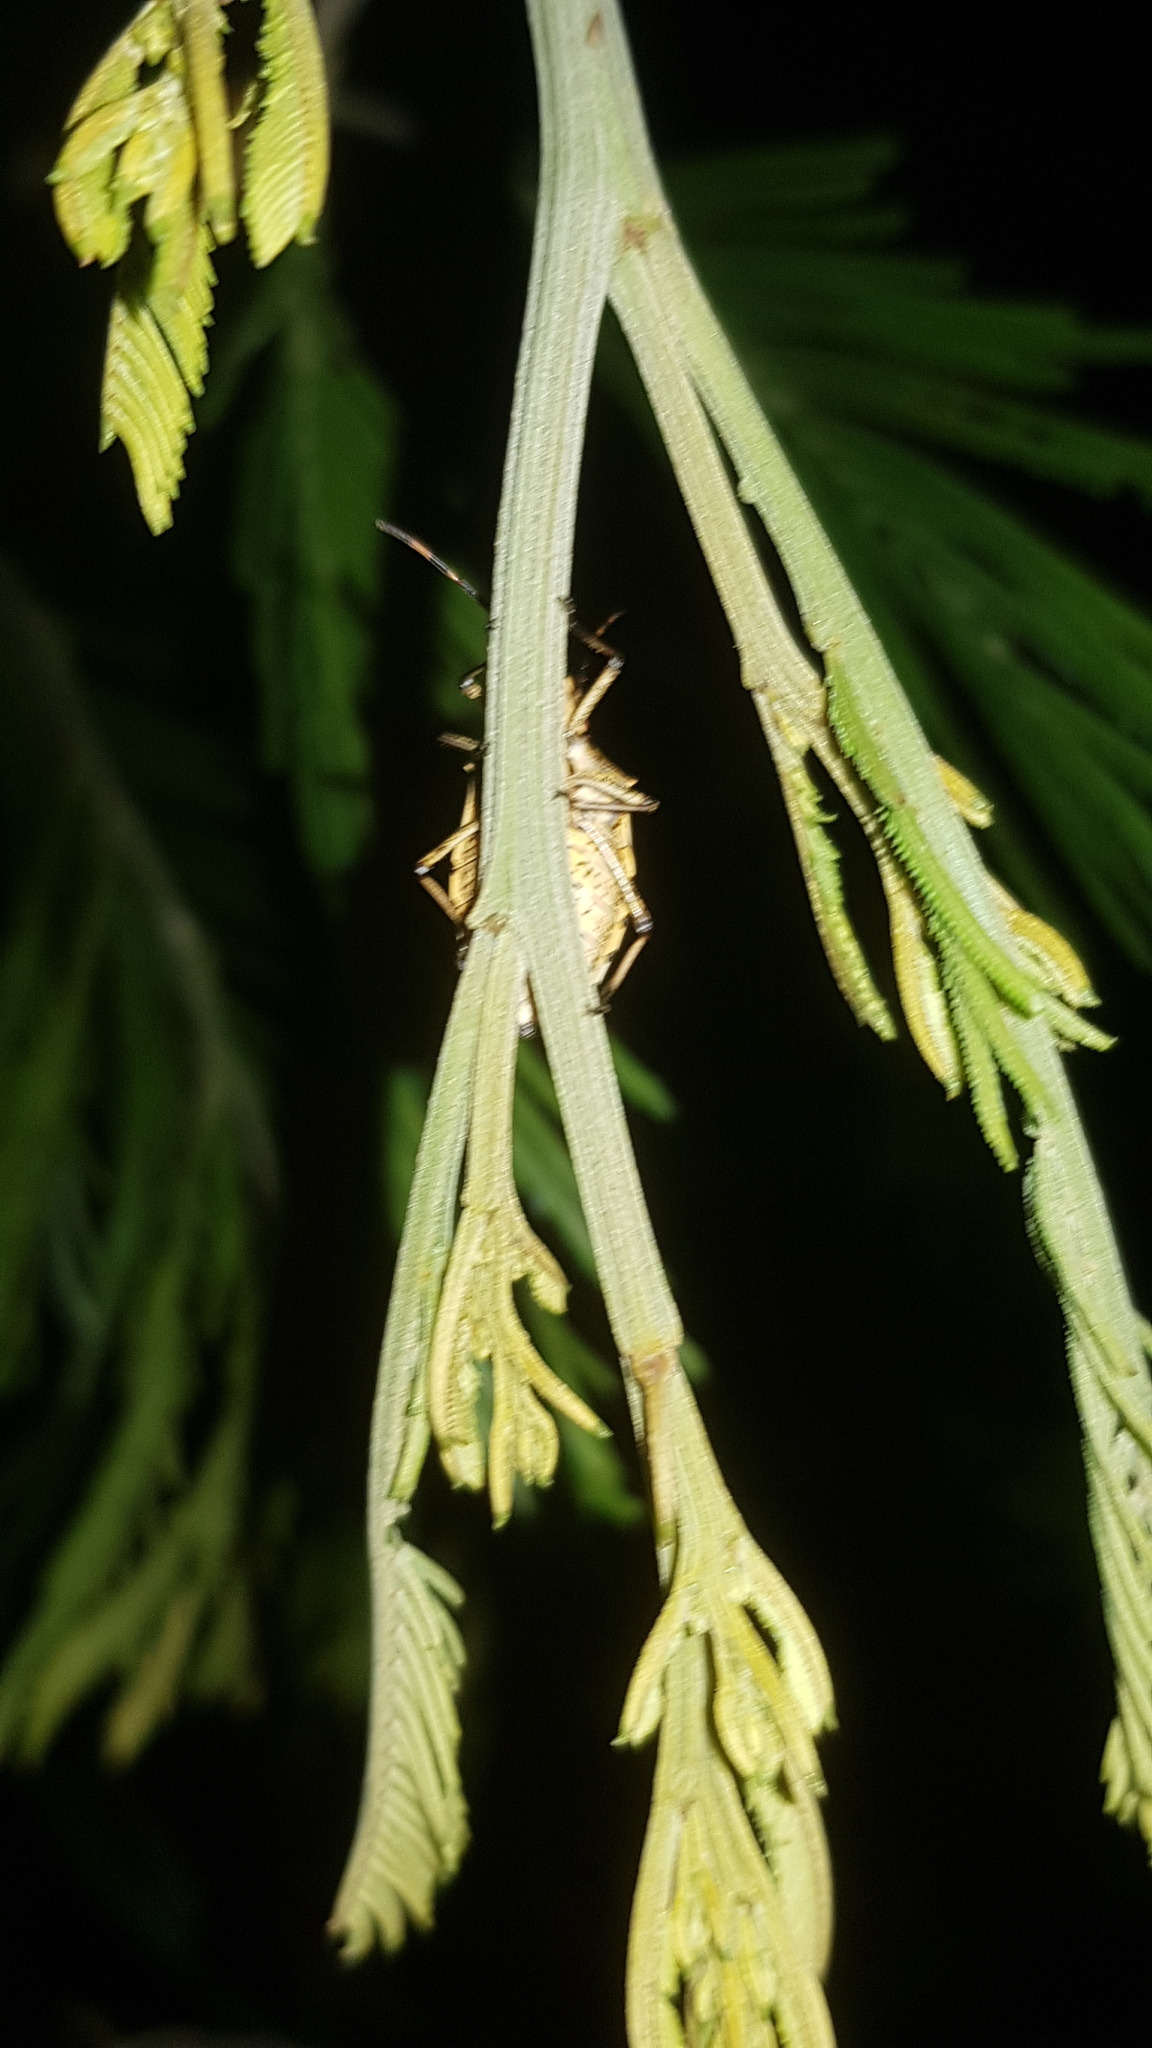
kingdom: Animalia
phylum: Arthropoda
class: Insecta
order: Hemiptera
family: Pentatomidae
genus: Omyta
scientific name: Omyta centrolineata
